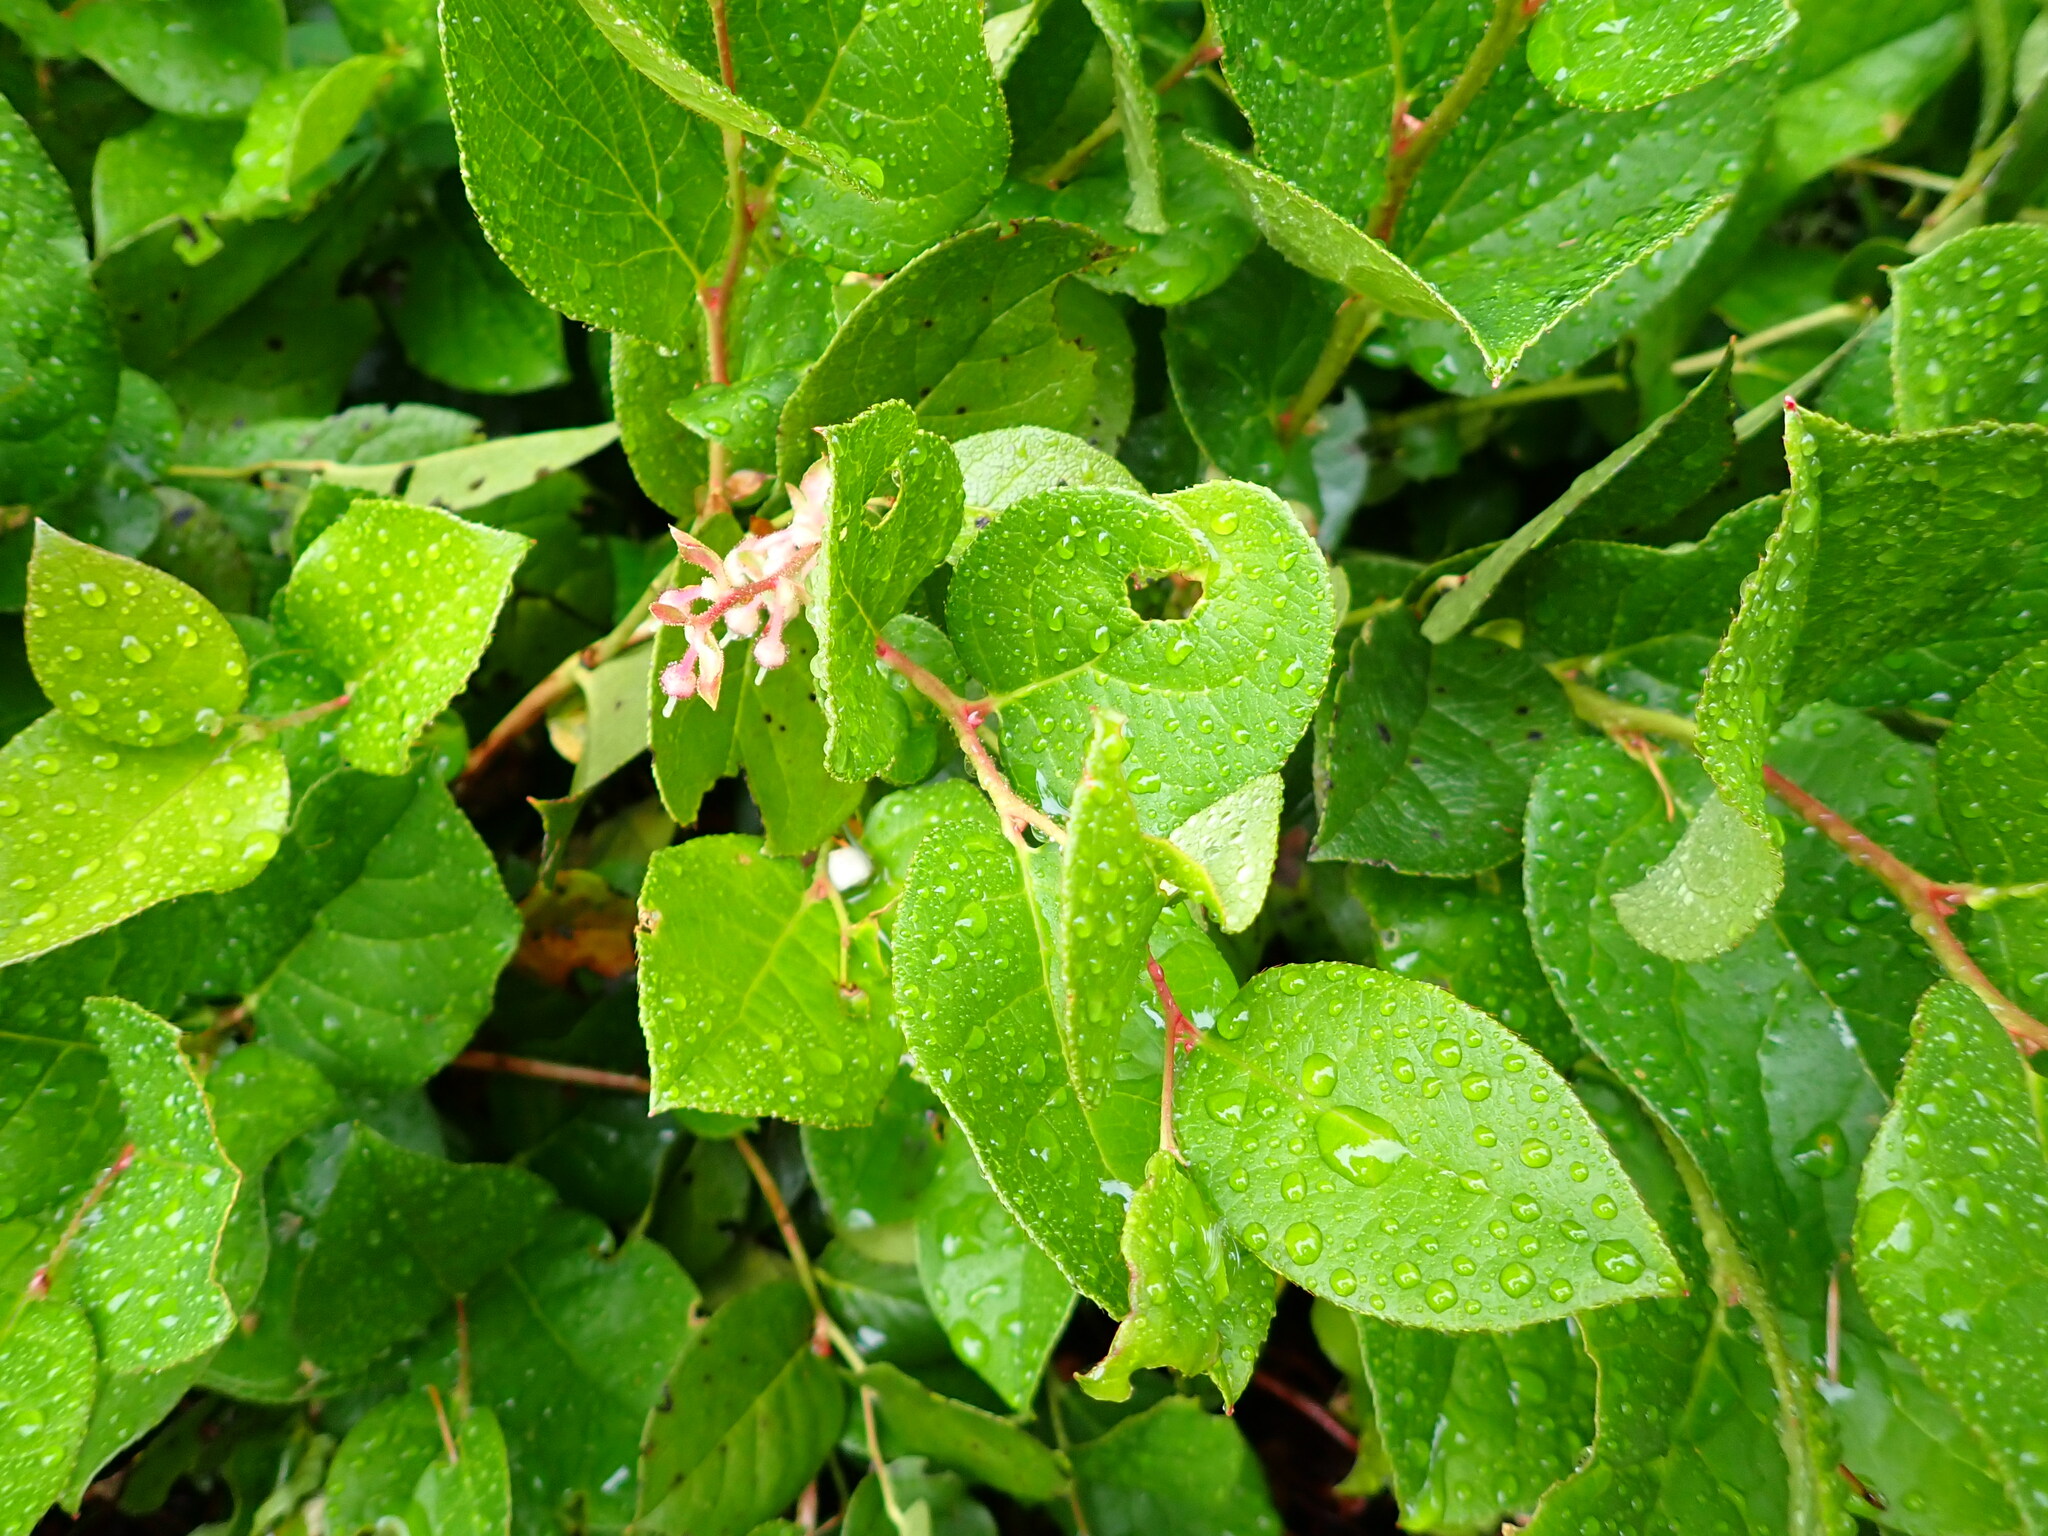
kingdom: Plantae
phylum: Tracheophyta
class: Magnoliopsida
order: Ericales
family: Ericaceae
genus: Gaultheria
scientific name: Gaultheria shallon
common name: Shallon
